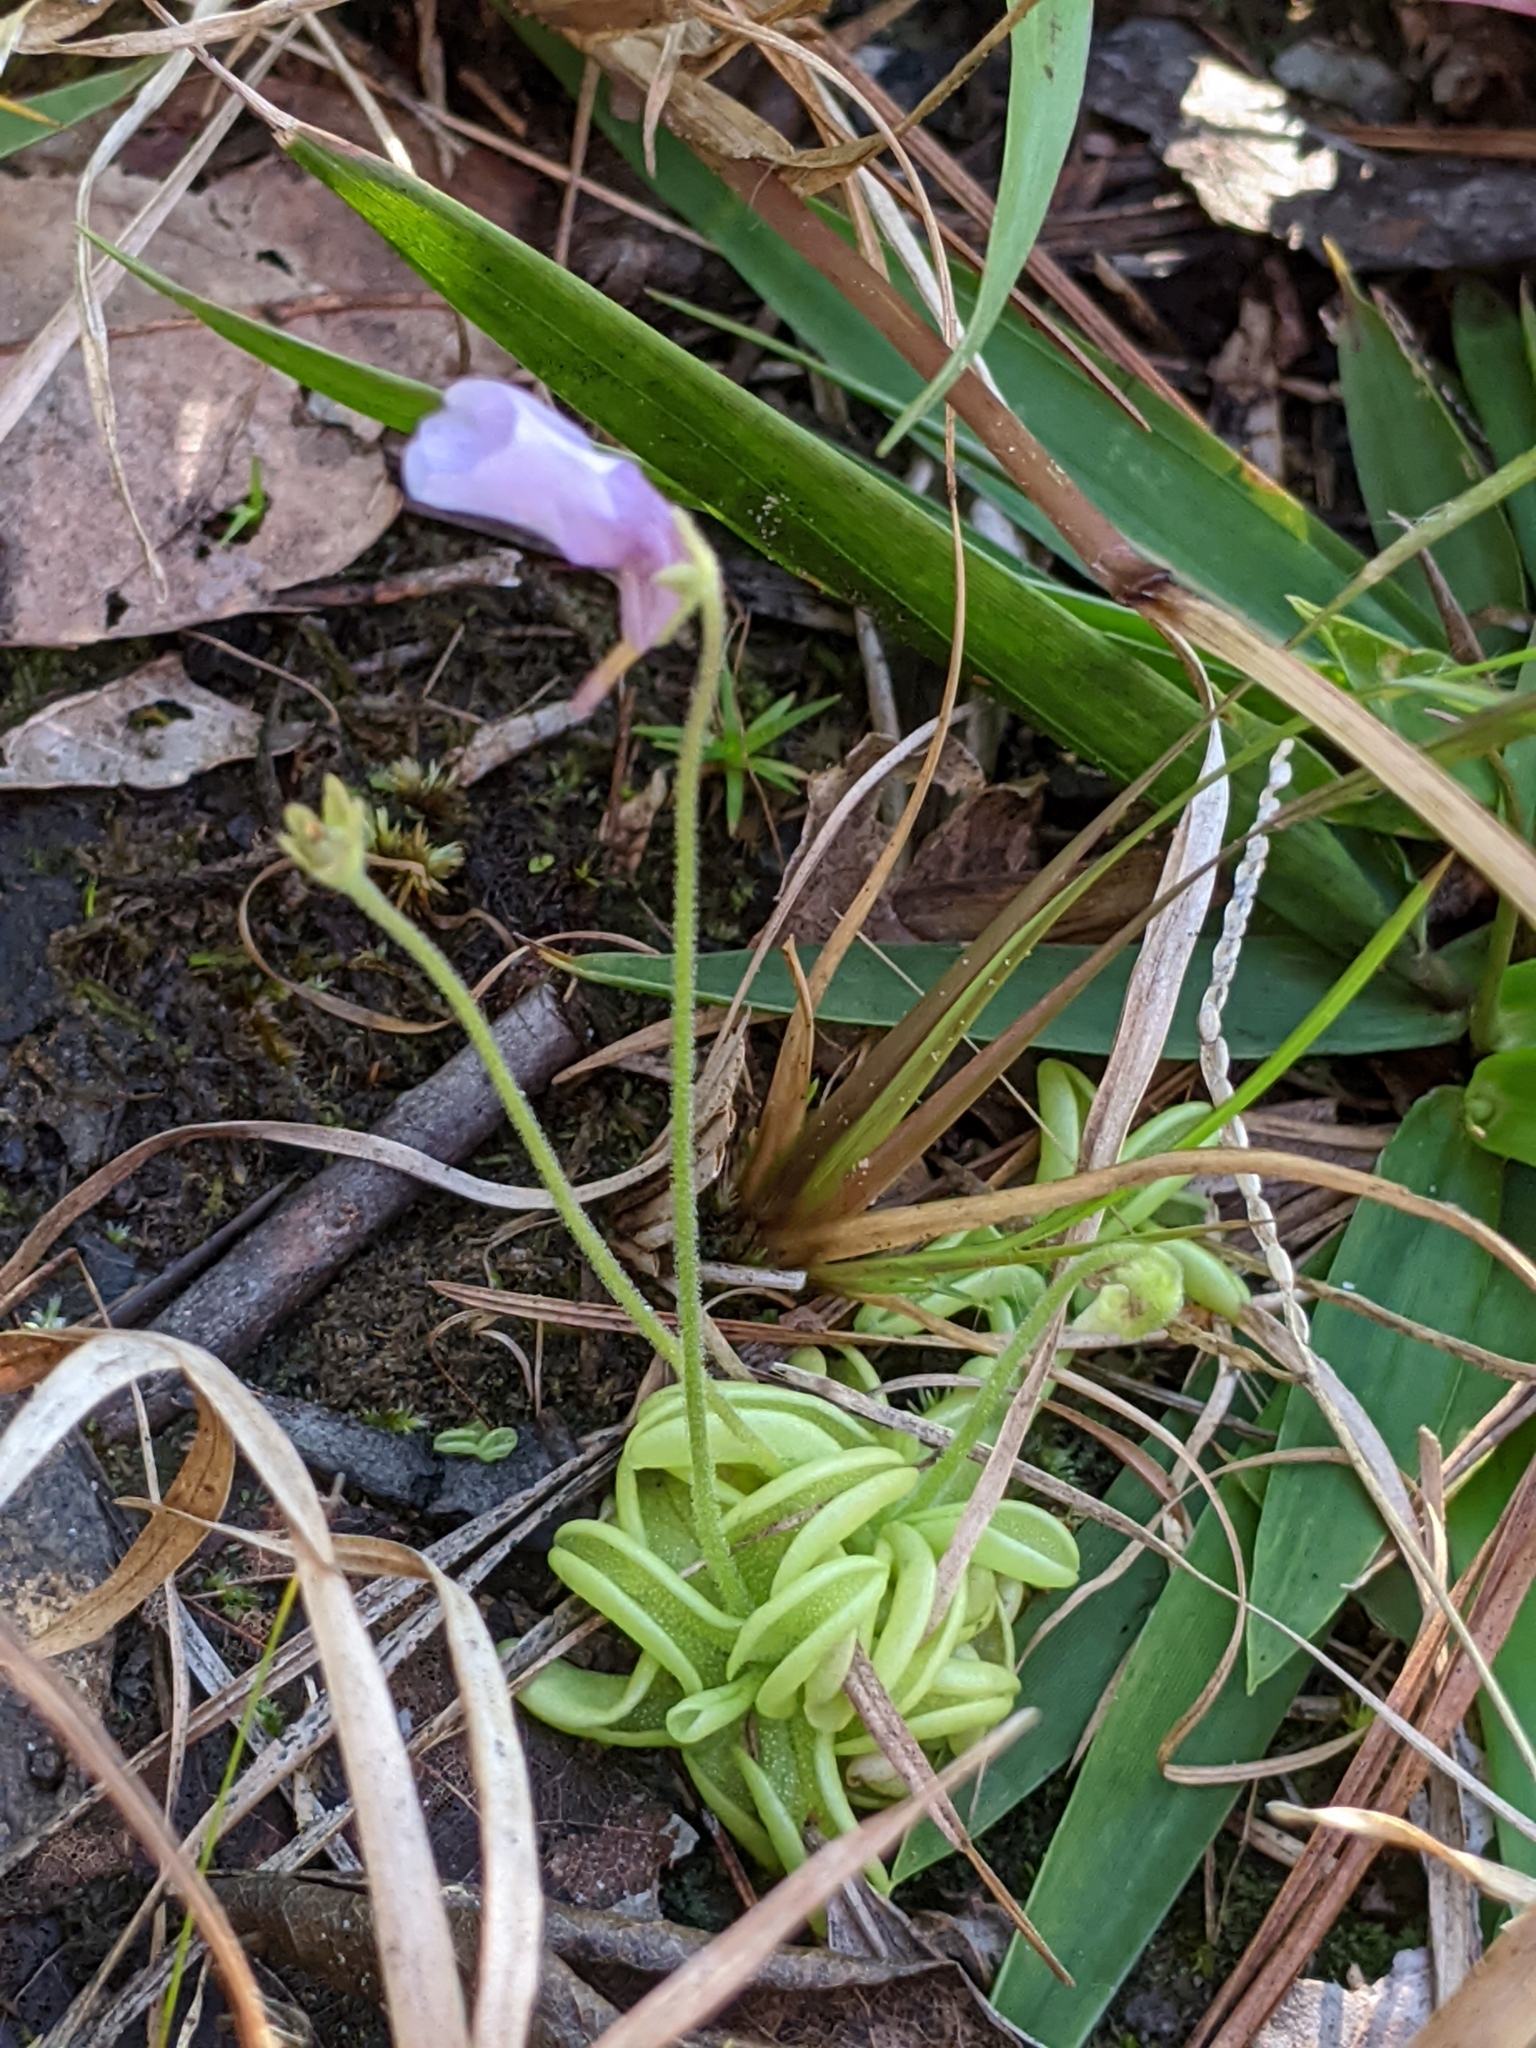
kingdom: Plantae
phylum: Tracheophyta
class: Magnoliopsida
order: Lamiales
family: Lentibulariaceae
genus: Pinguicula
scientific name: Pinguicula pumila
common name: Small butterwort
